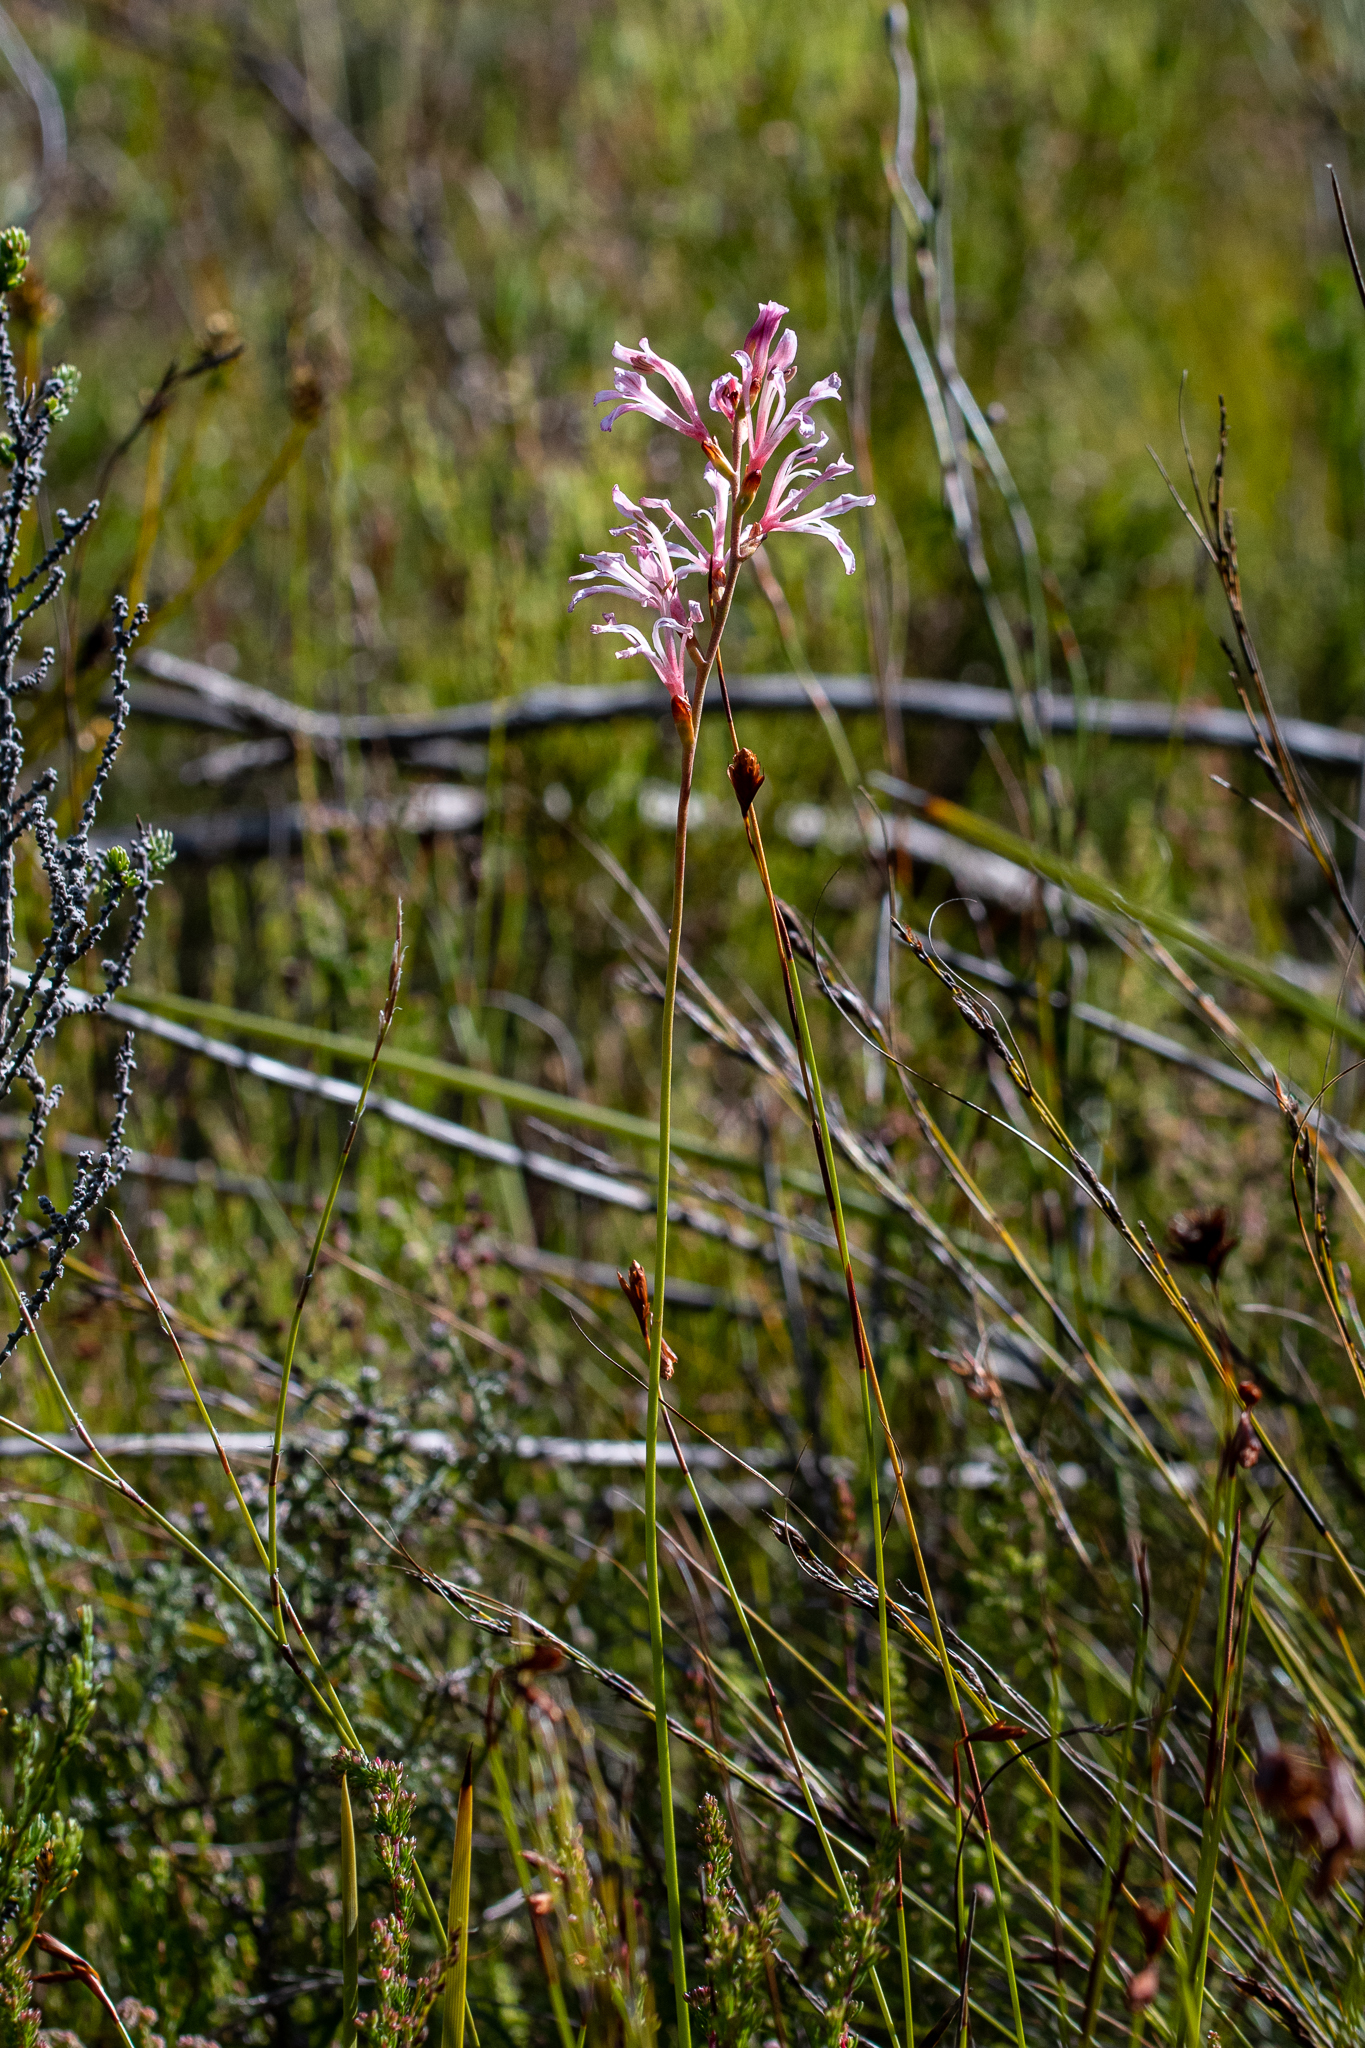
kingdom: Plantae
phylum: Tracheophyta
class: Liliopsida
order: Asparagales
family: Iridaceae
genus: Tritoniopsis
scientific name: Tritoniopsis lata
